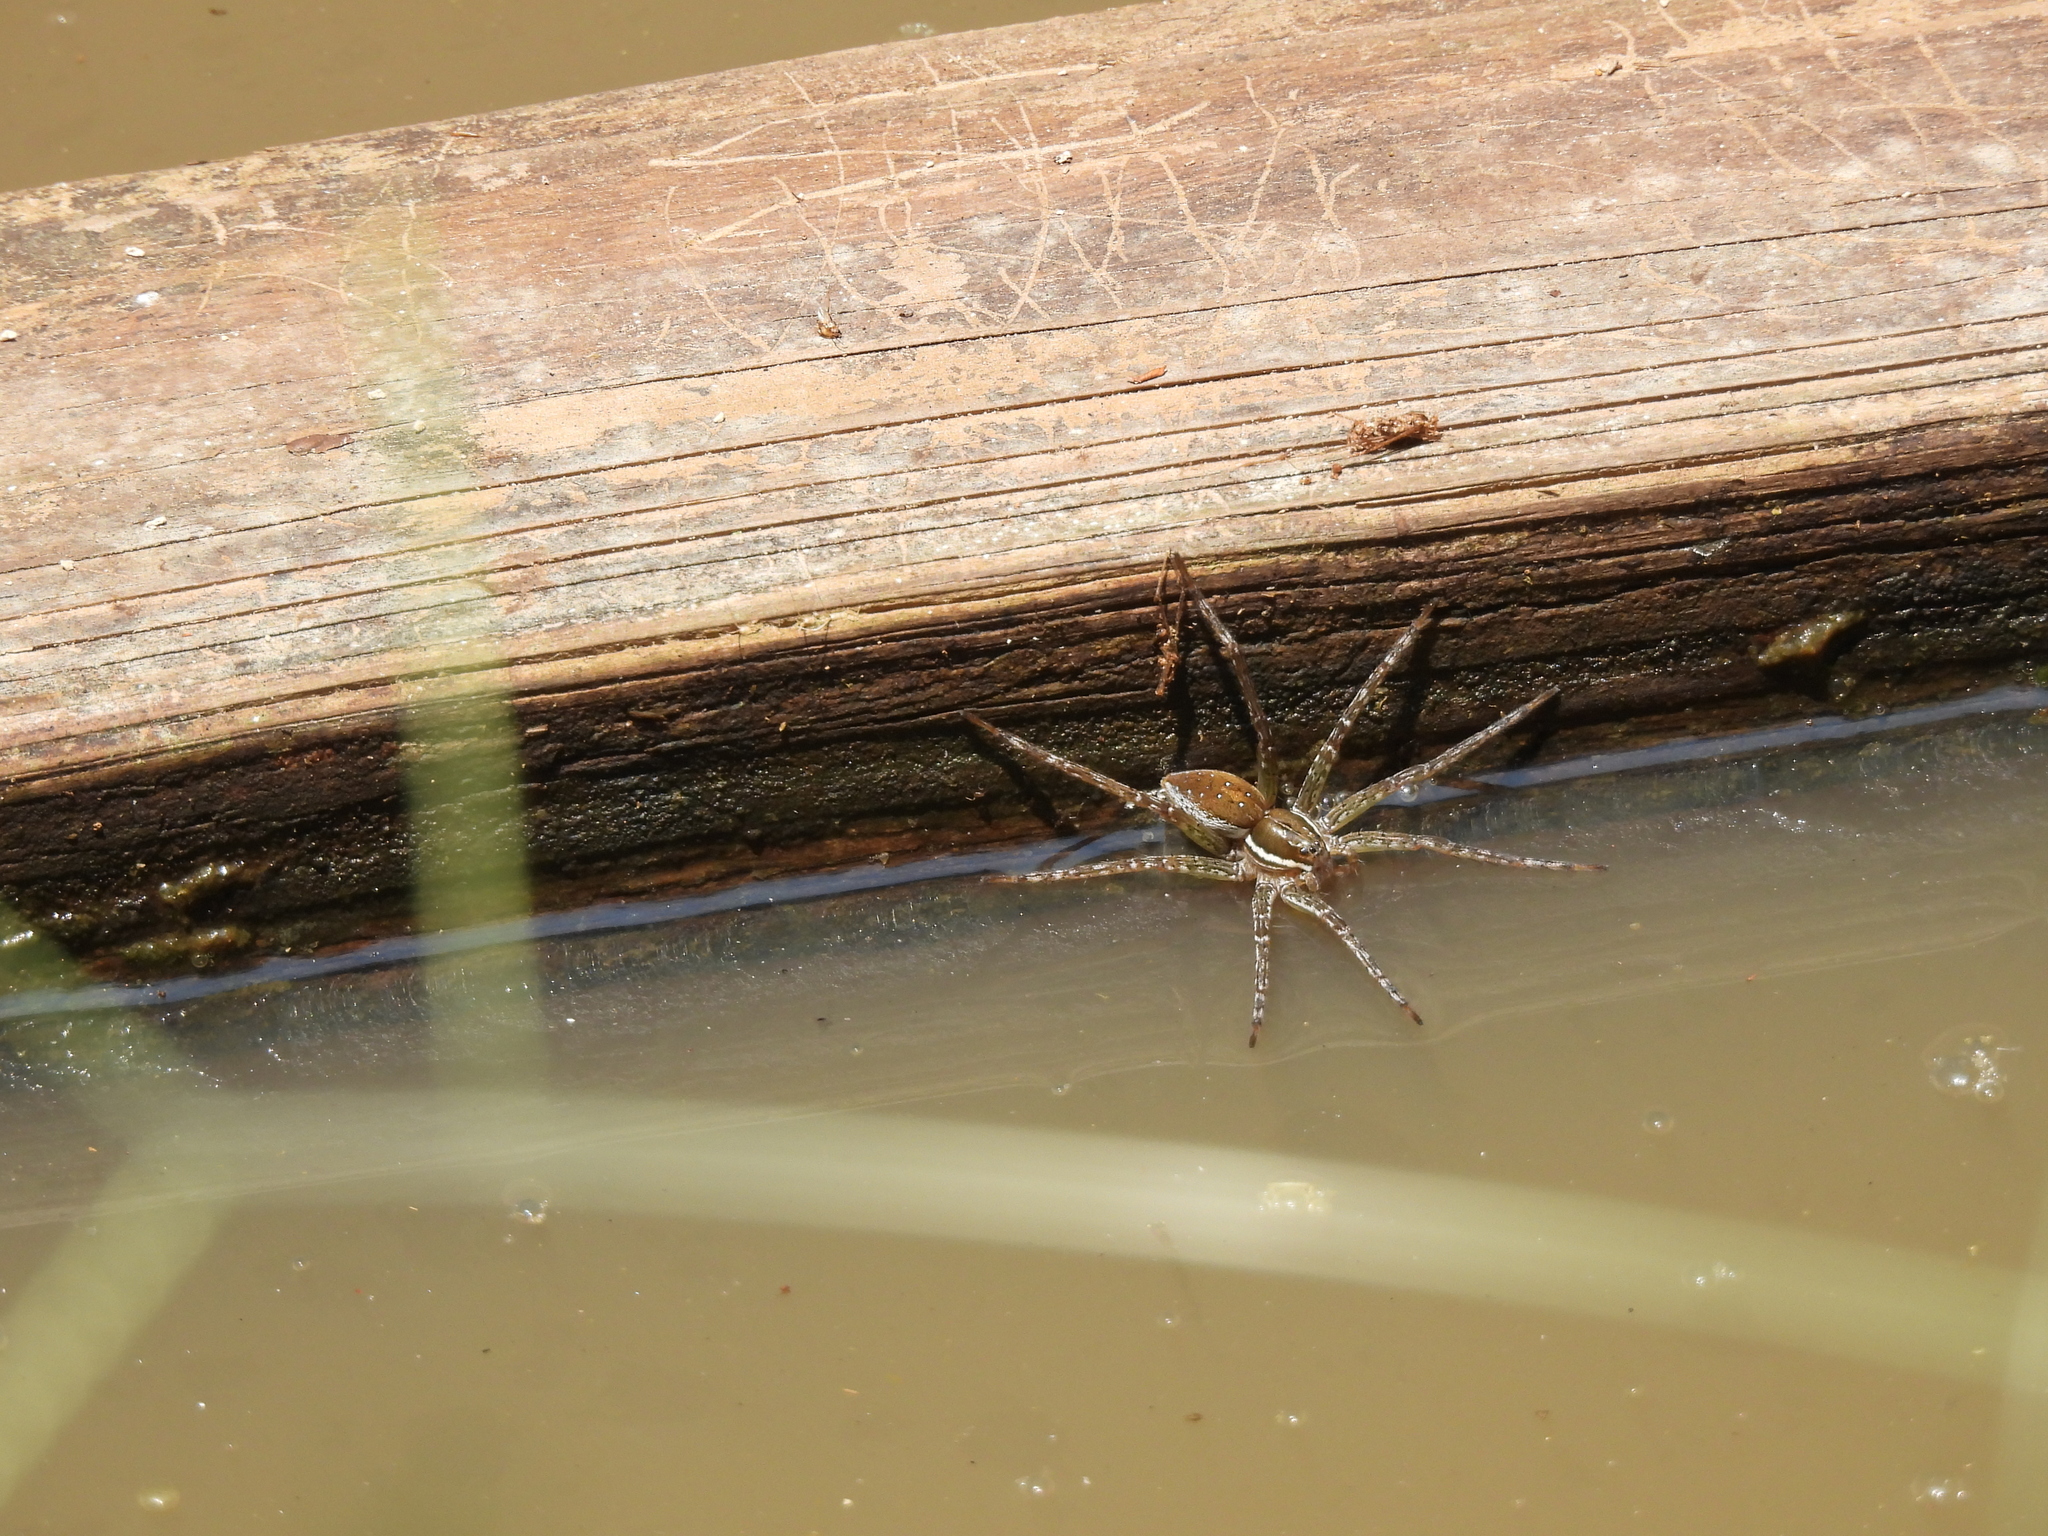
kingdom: Animalia
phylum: Arthropoda
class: Arachnida
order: Araneae
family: Pisauridae
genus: Dolomedes
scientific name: Dolomedes triton
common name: Six-spotted fishing spider
